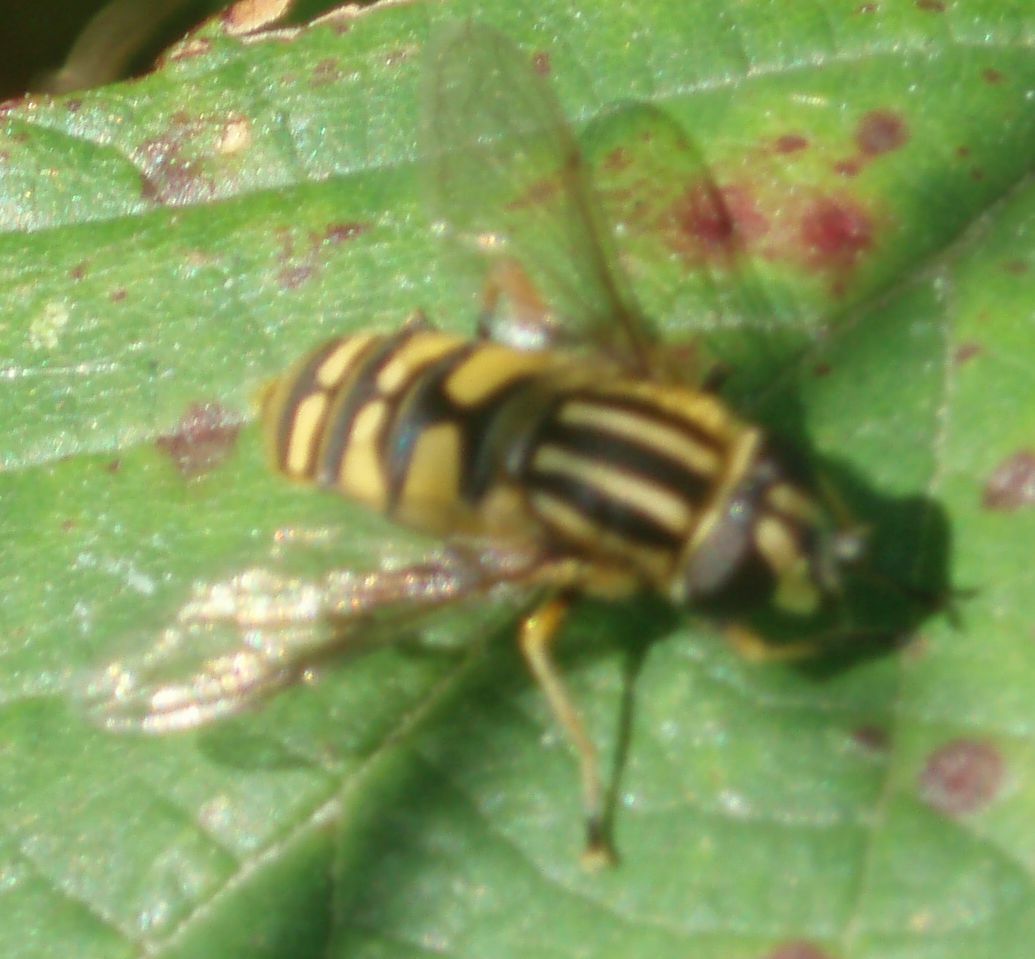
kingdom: Animalia
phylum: Arthropoda
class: Insecta
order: Diptera
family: Syrphidae
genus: Helophilus
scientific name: Helophilus pendulus
